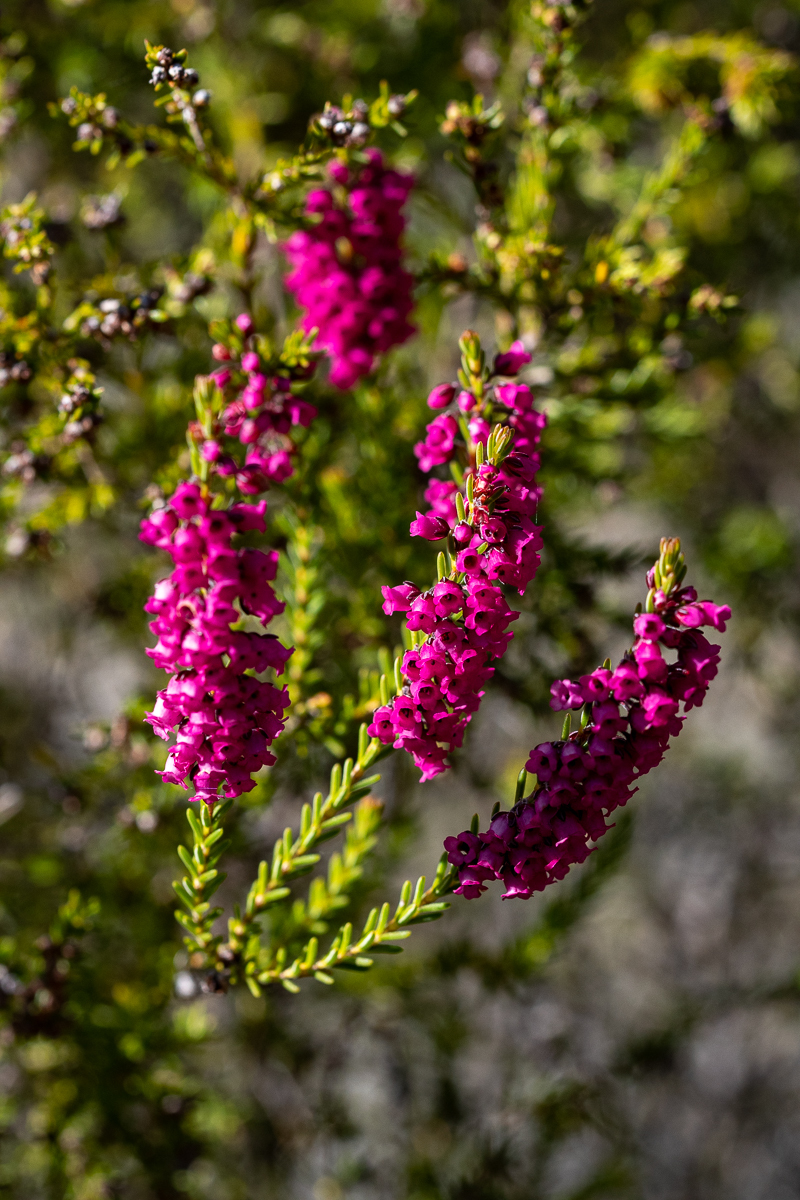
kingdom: Plantae
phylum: Tracheophyta
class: Magnoliopsida
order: Ericales
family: Ericaceae
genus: Erica
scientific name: Erica pulchella
